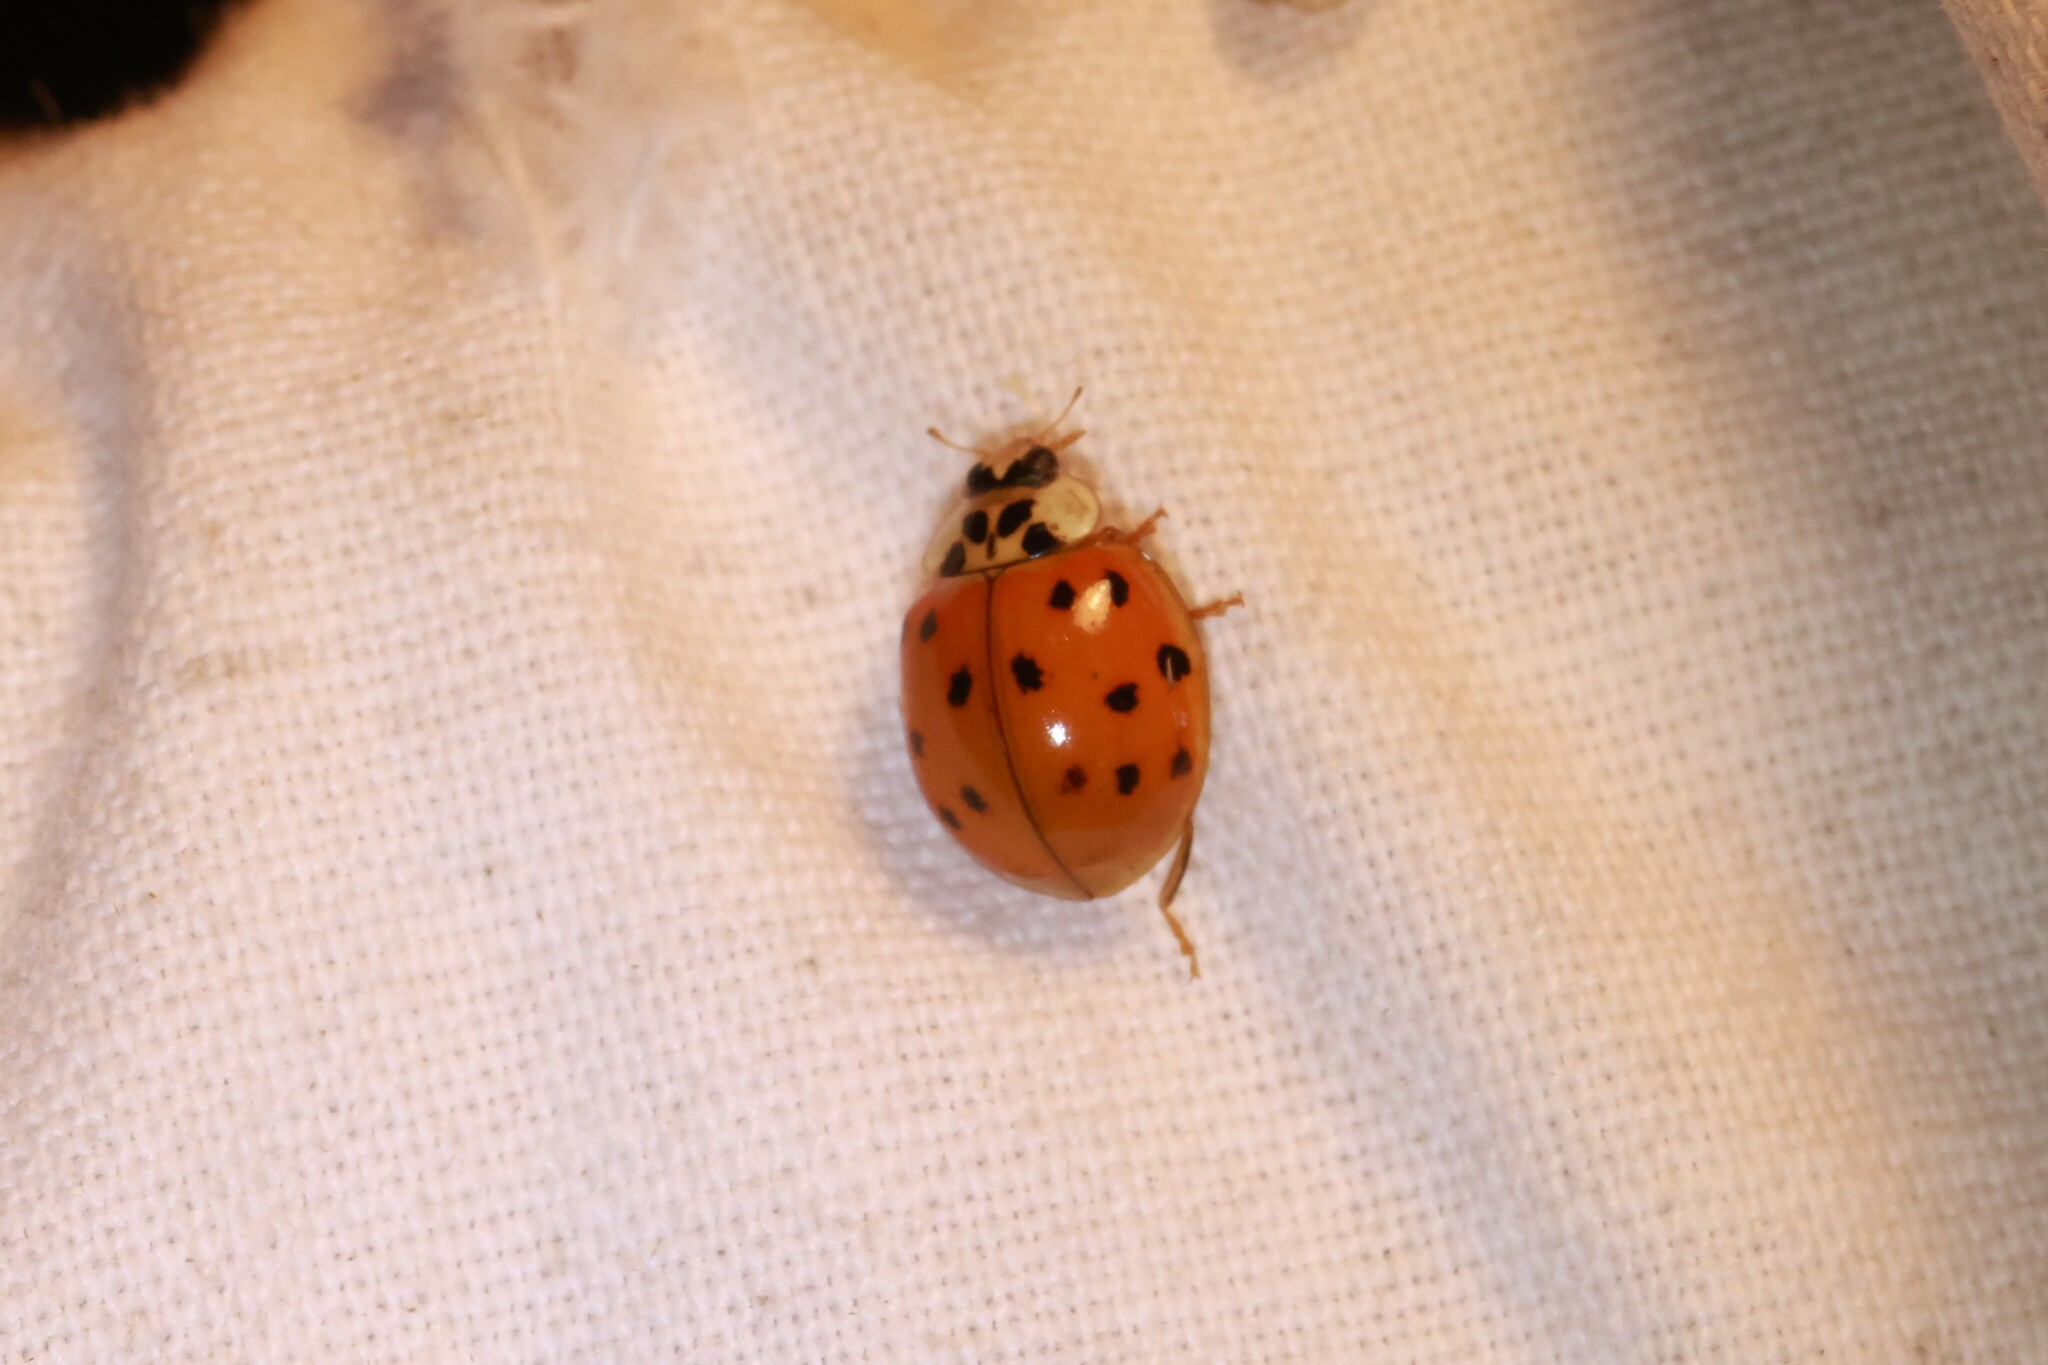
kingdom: Animalia
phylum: Arthropoda
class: Insecta
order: Coleoptera
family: Coccinellidae
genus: Harmonia
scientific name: Harmonia axyridis
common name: Harlequin ladybird
